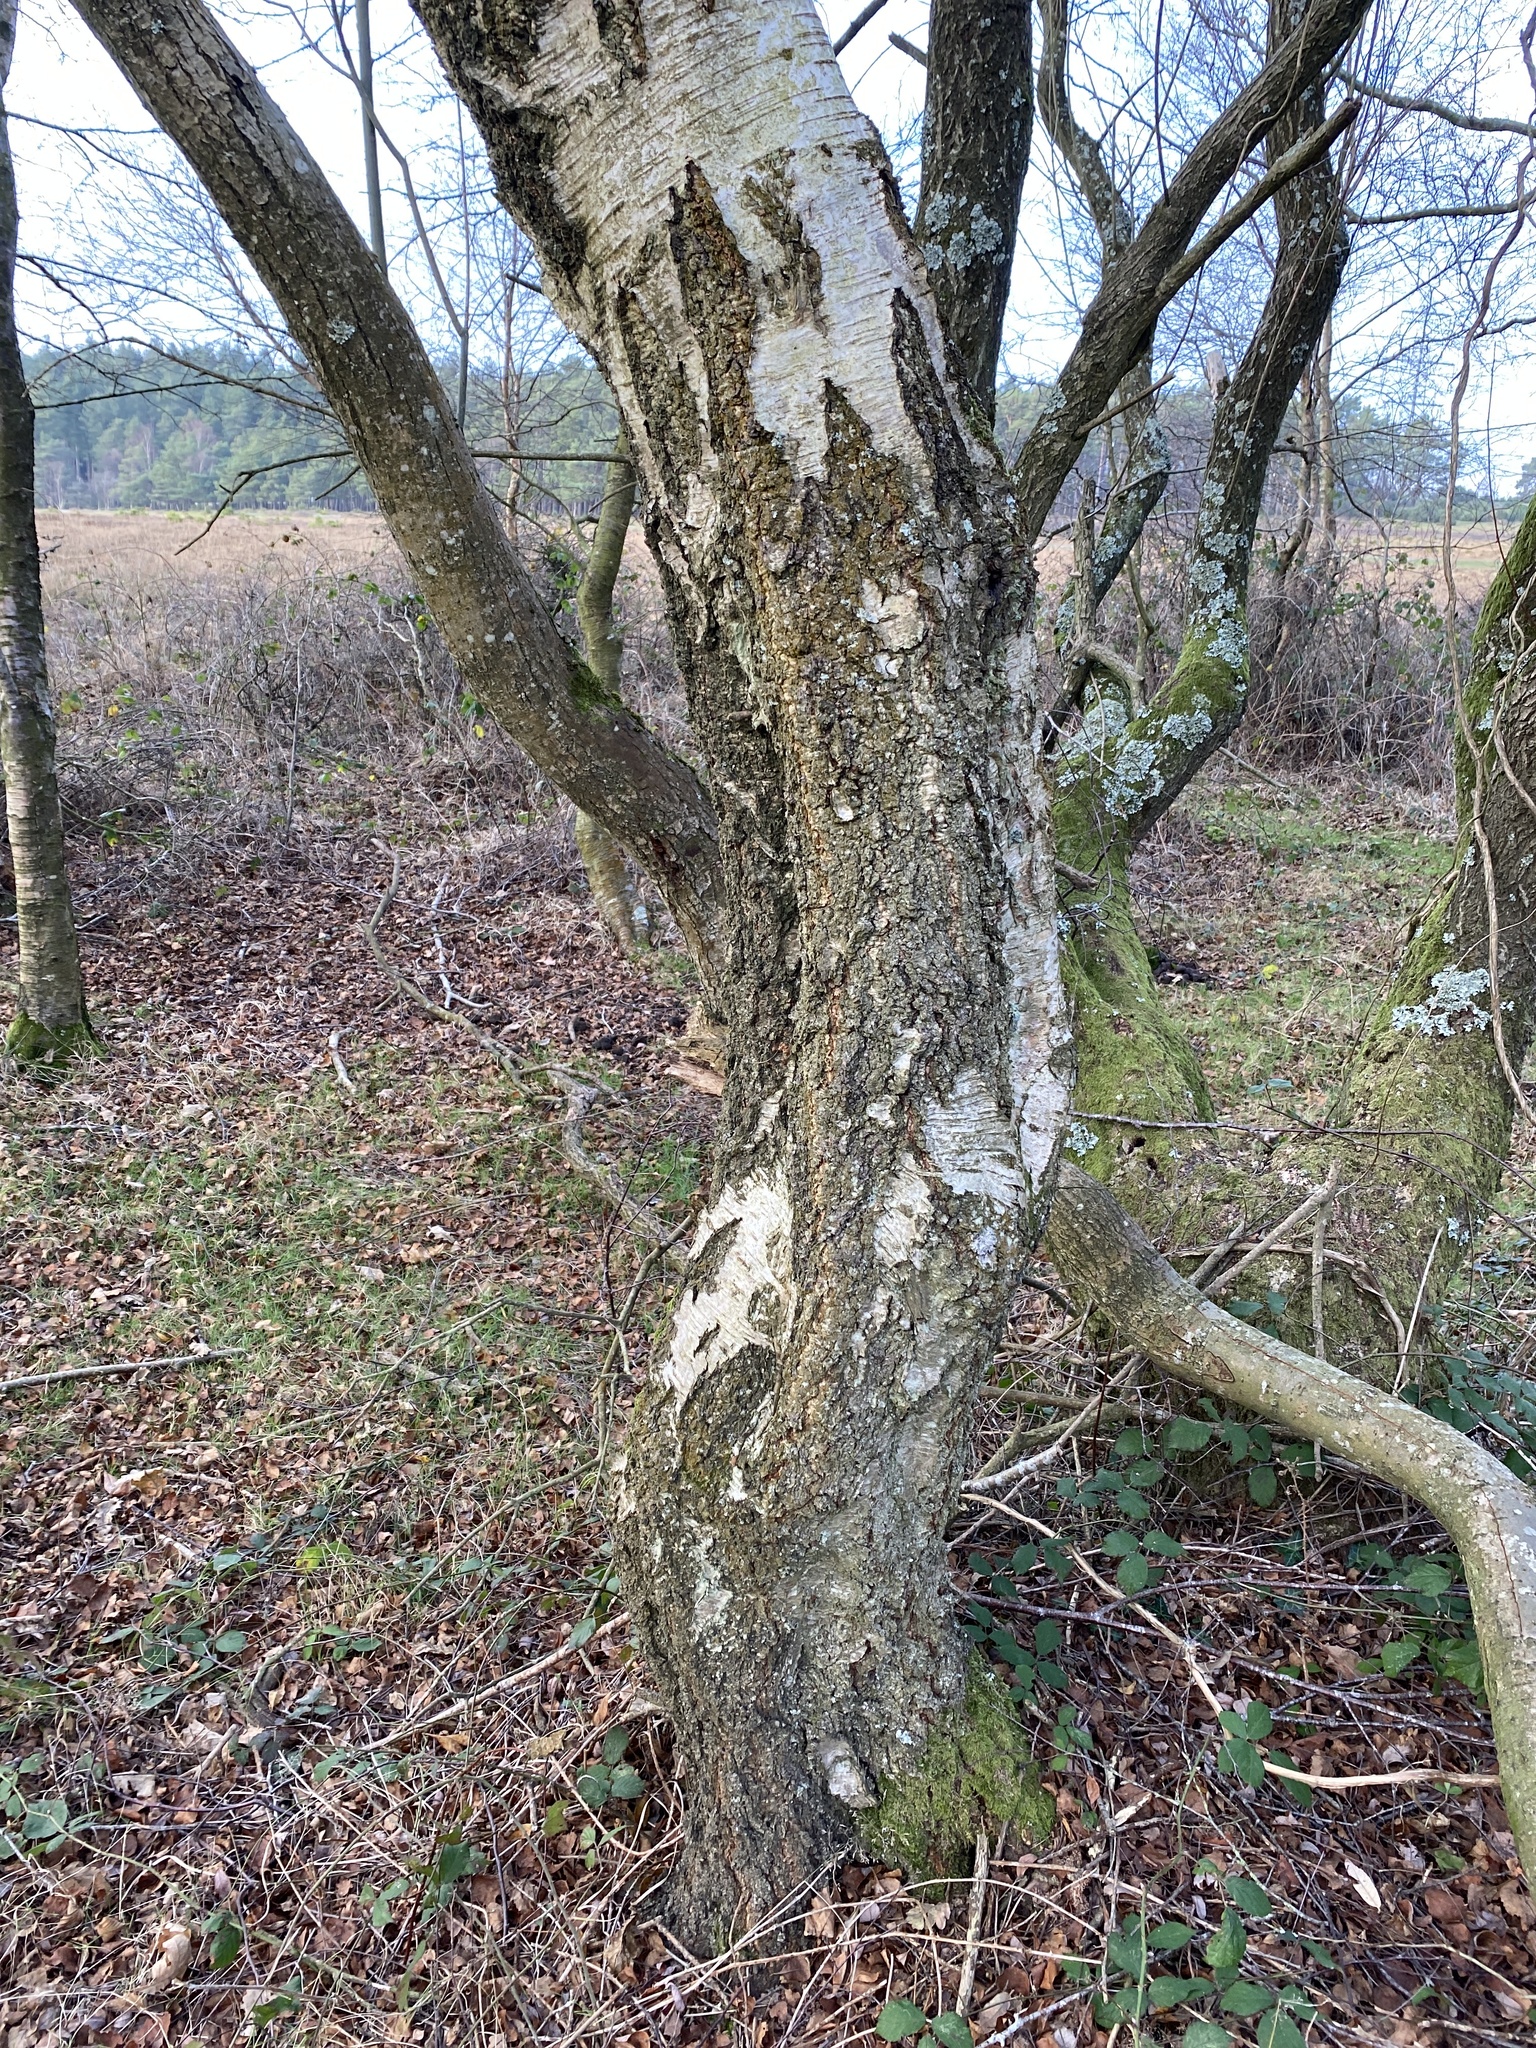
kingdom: Plantae
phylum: Tracheophyta
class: Magnoliopsida
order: Fagales
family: Betulaceae
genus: Betula
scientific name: Betula pendula
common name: Silver birch
